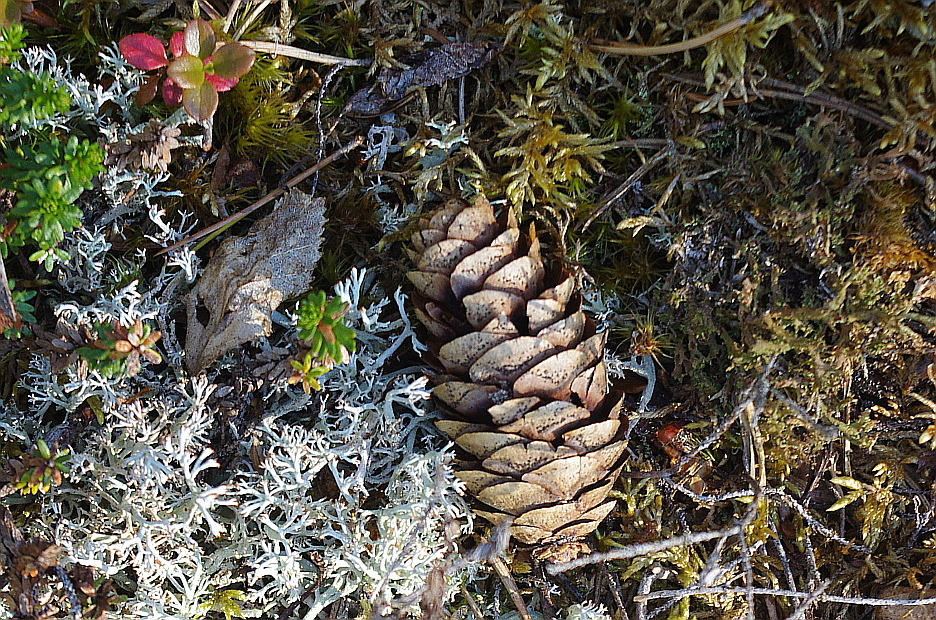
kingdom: Plantae
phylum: Tracheophyta
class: Pinopsida
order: Pinales
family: Pinaceae
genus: Picea
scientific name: Picea obovata
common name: Siberian spruce
